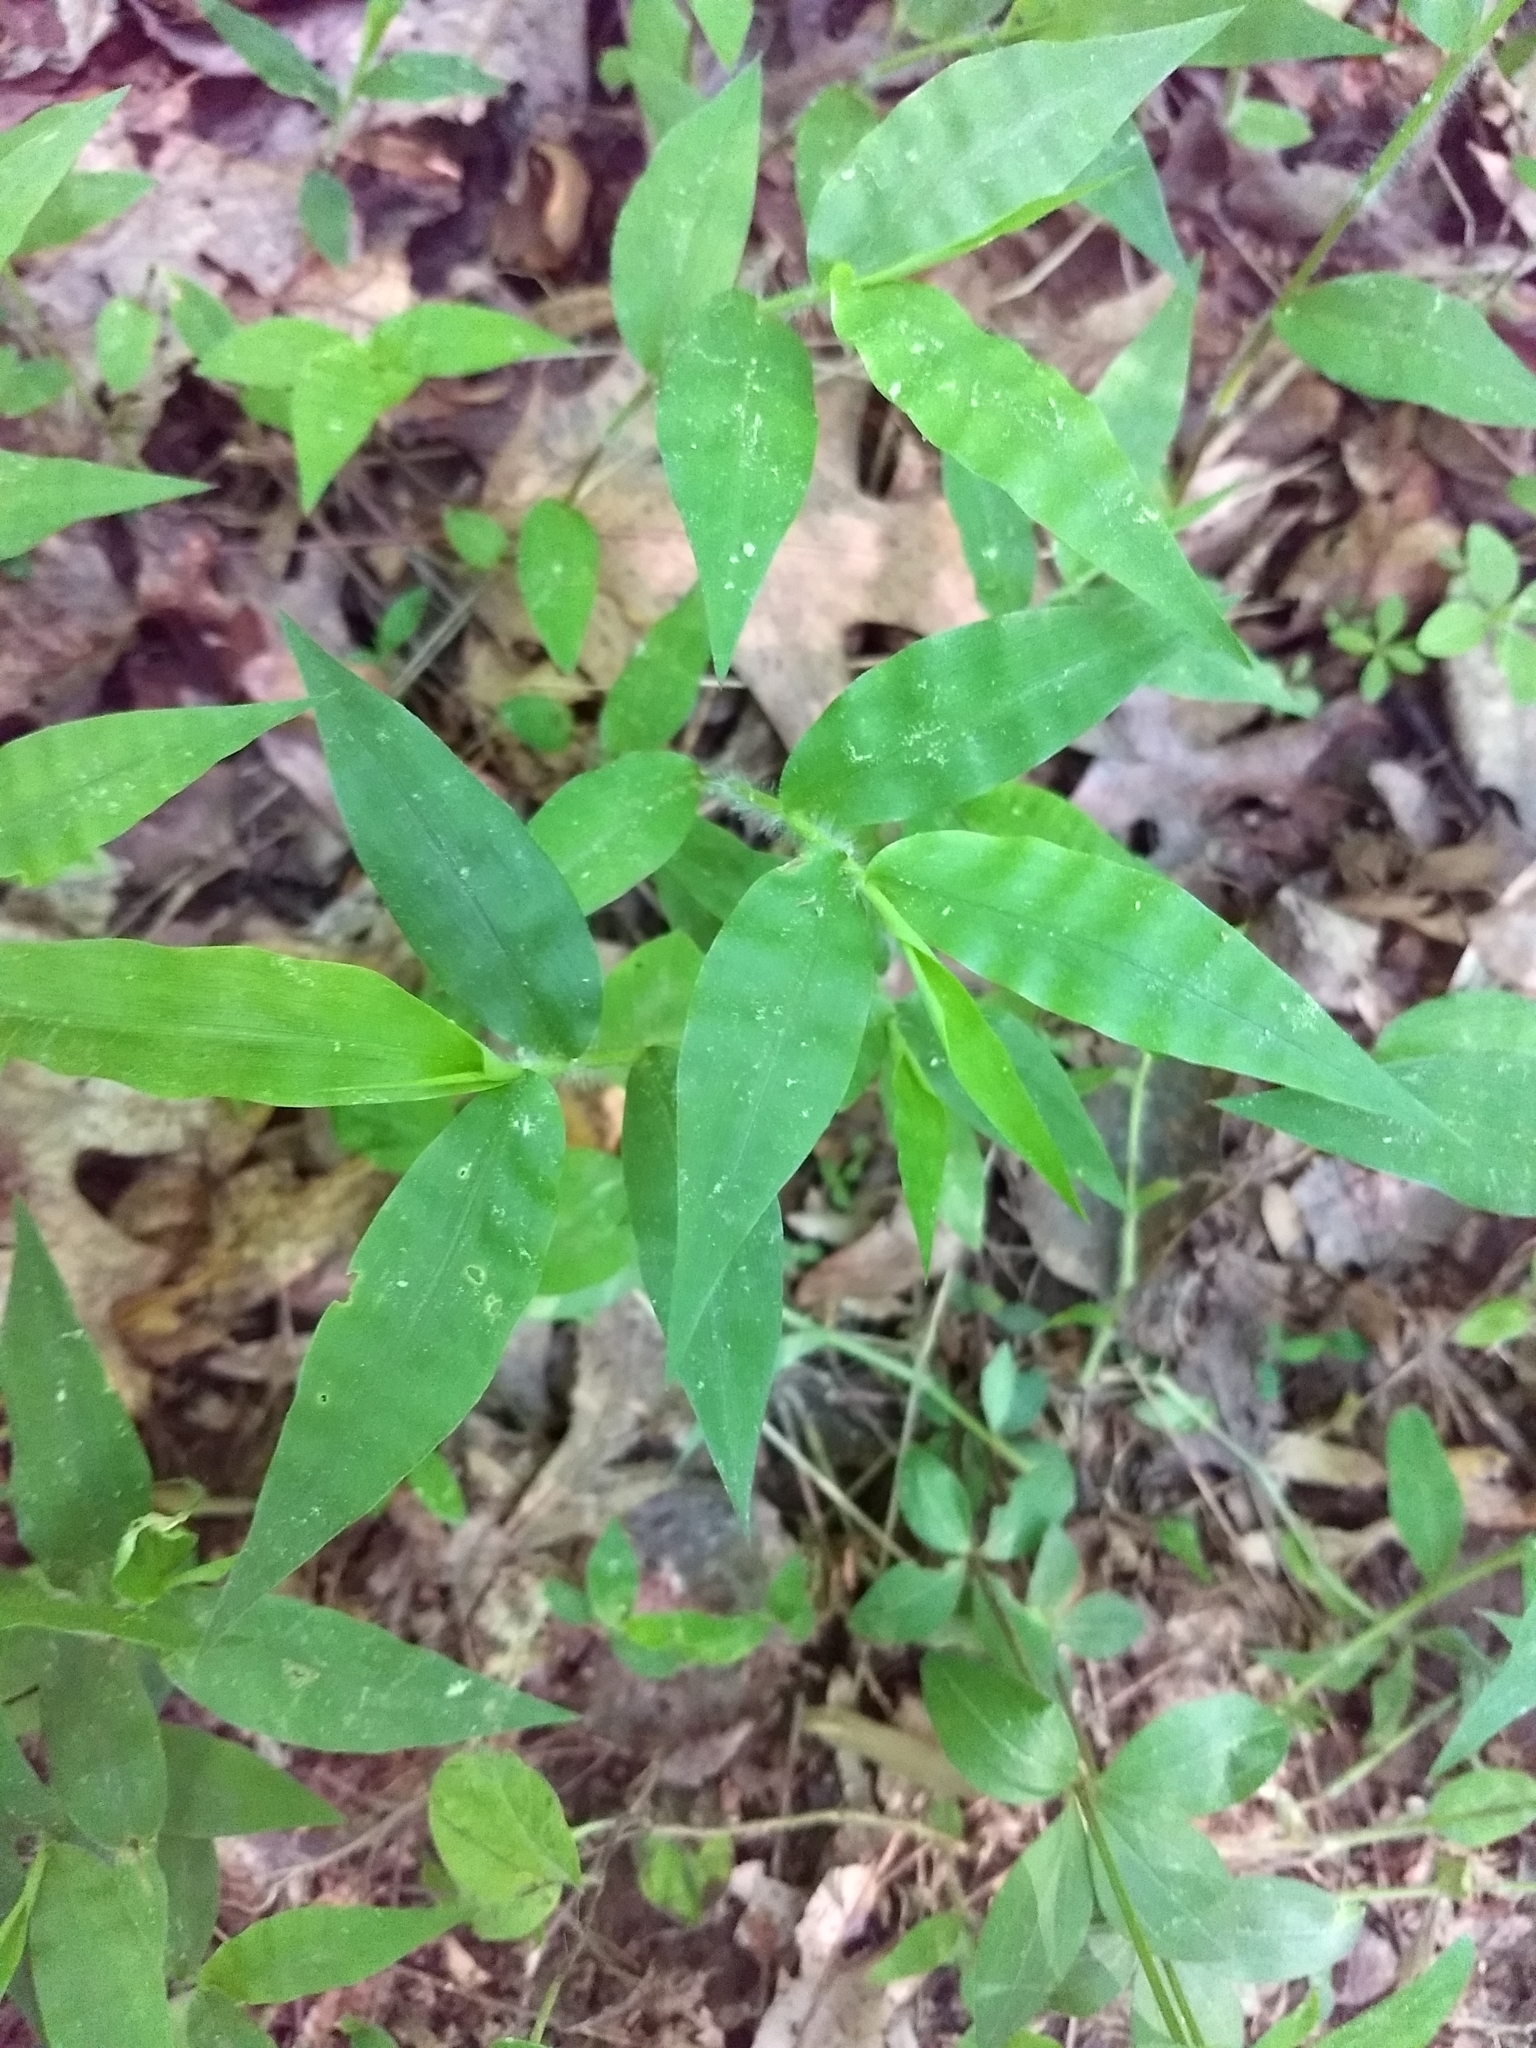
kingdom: Plantae
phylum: Tracheophyta
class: Liliopsida
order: Poales
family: Poaceae
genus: Oplismenus
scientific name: Oplismenus undulatifolius
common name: Wavyleaf basketgrass
